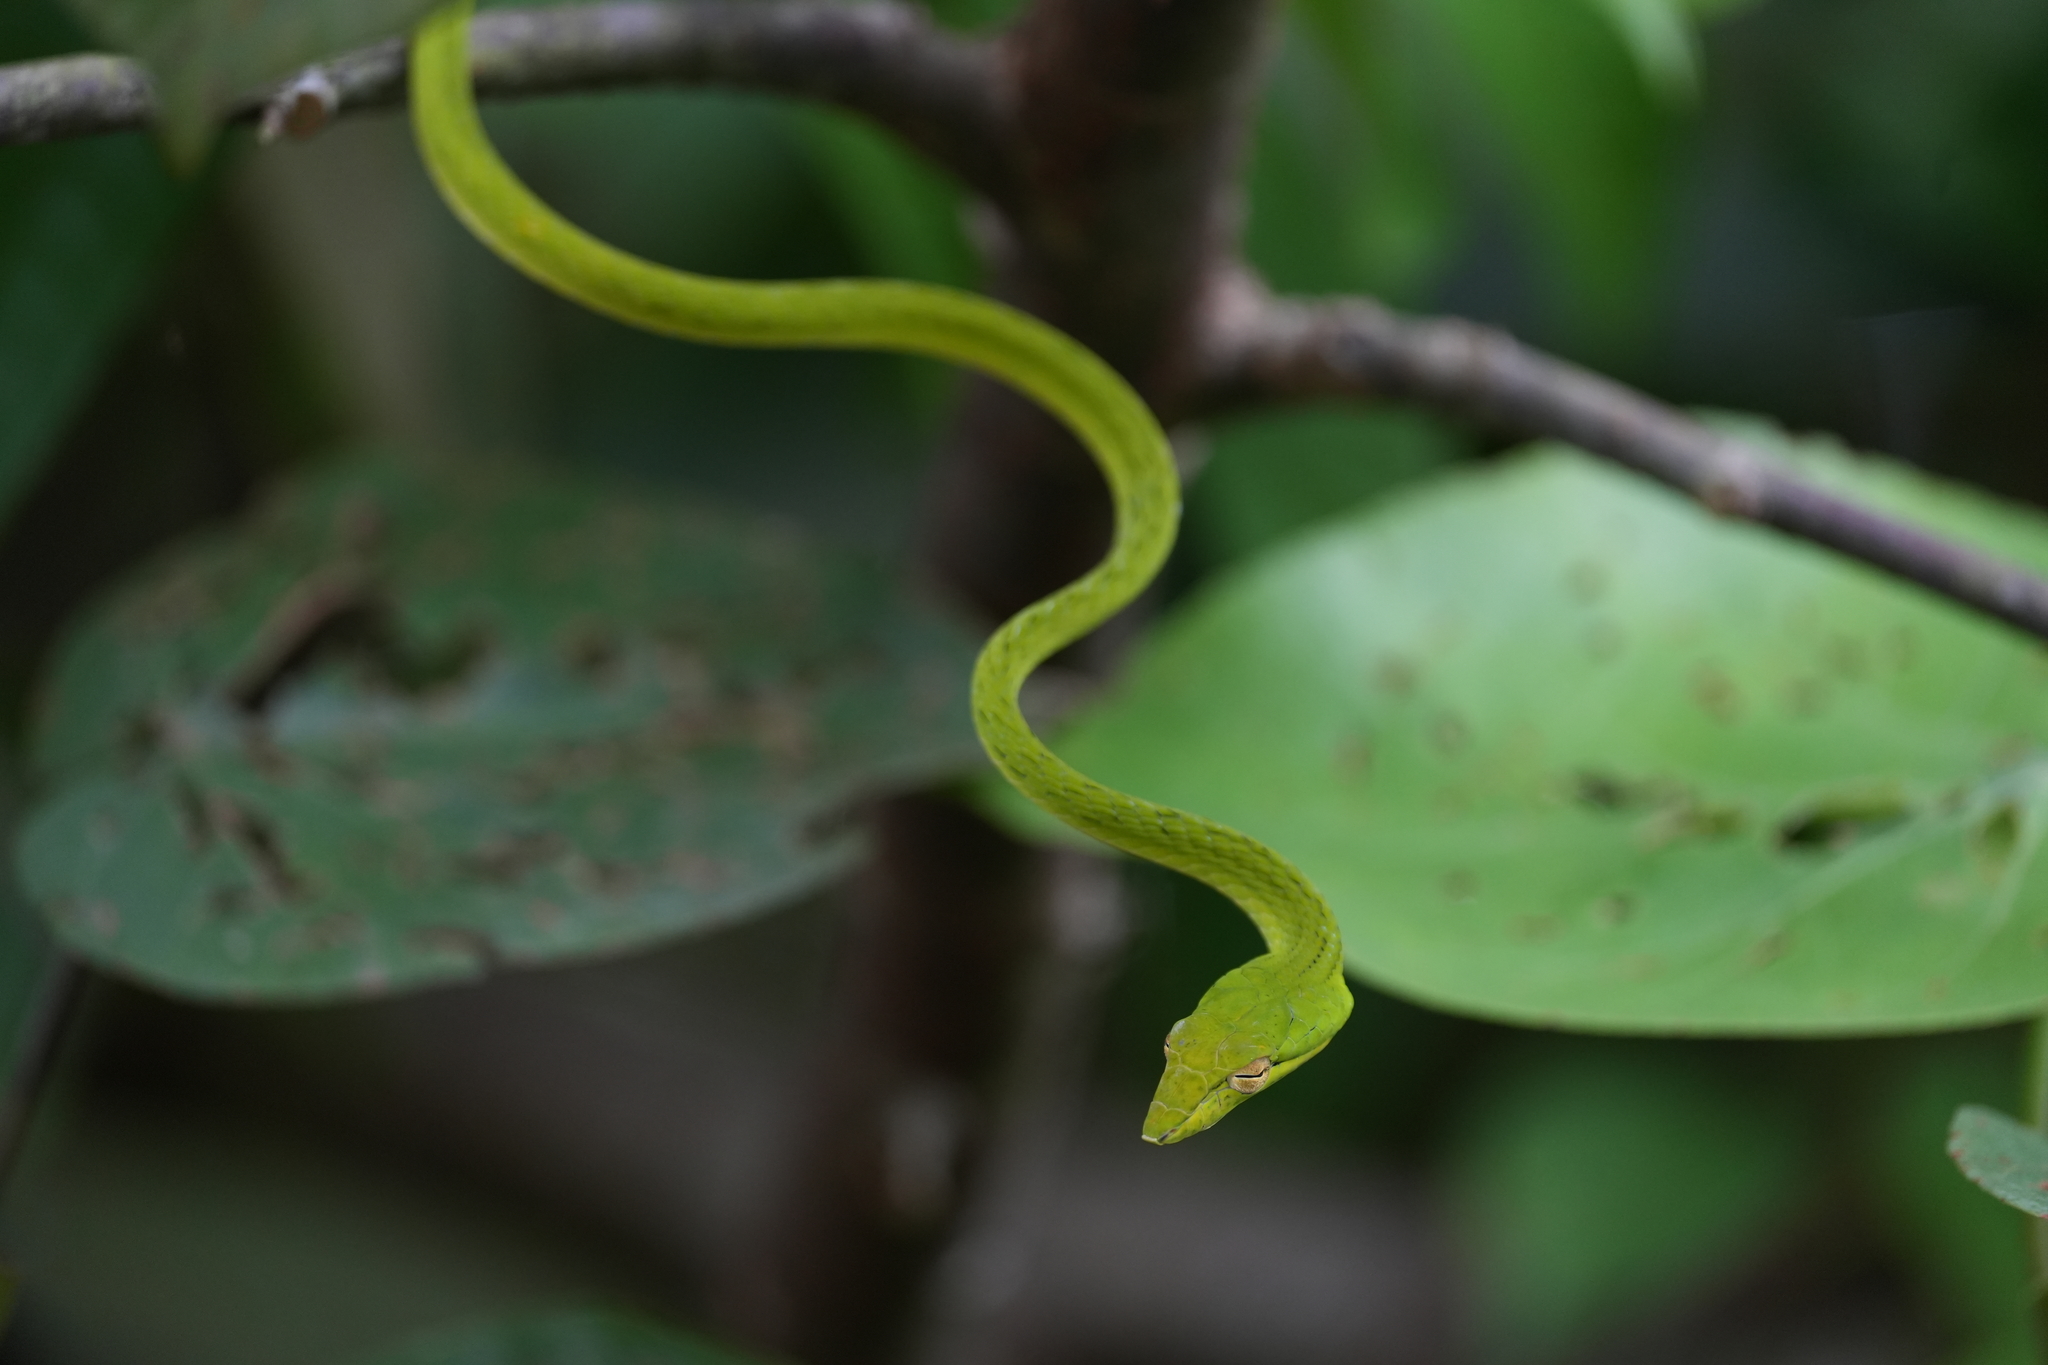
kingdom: Animalia
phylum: Chordata
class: Squamata
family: Colubridae
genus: Ahaetulla
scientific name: Ahaetulla prasina
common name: Oriental whip snake
